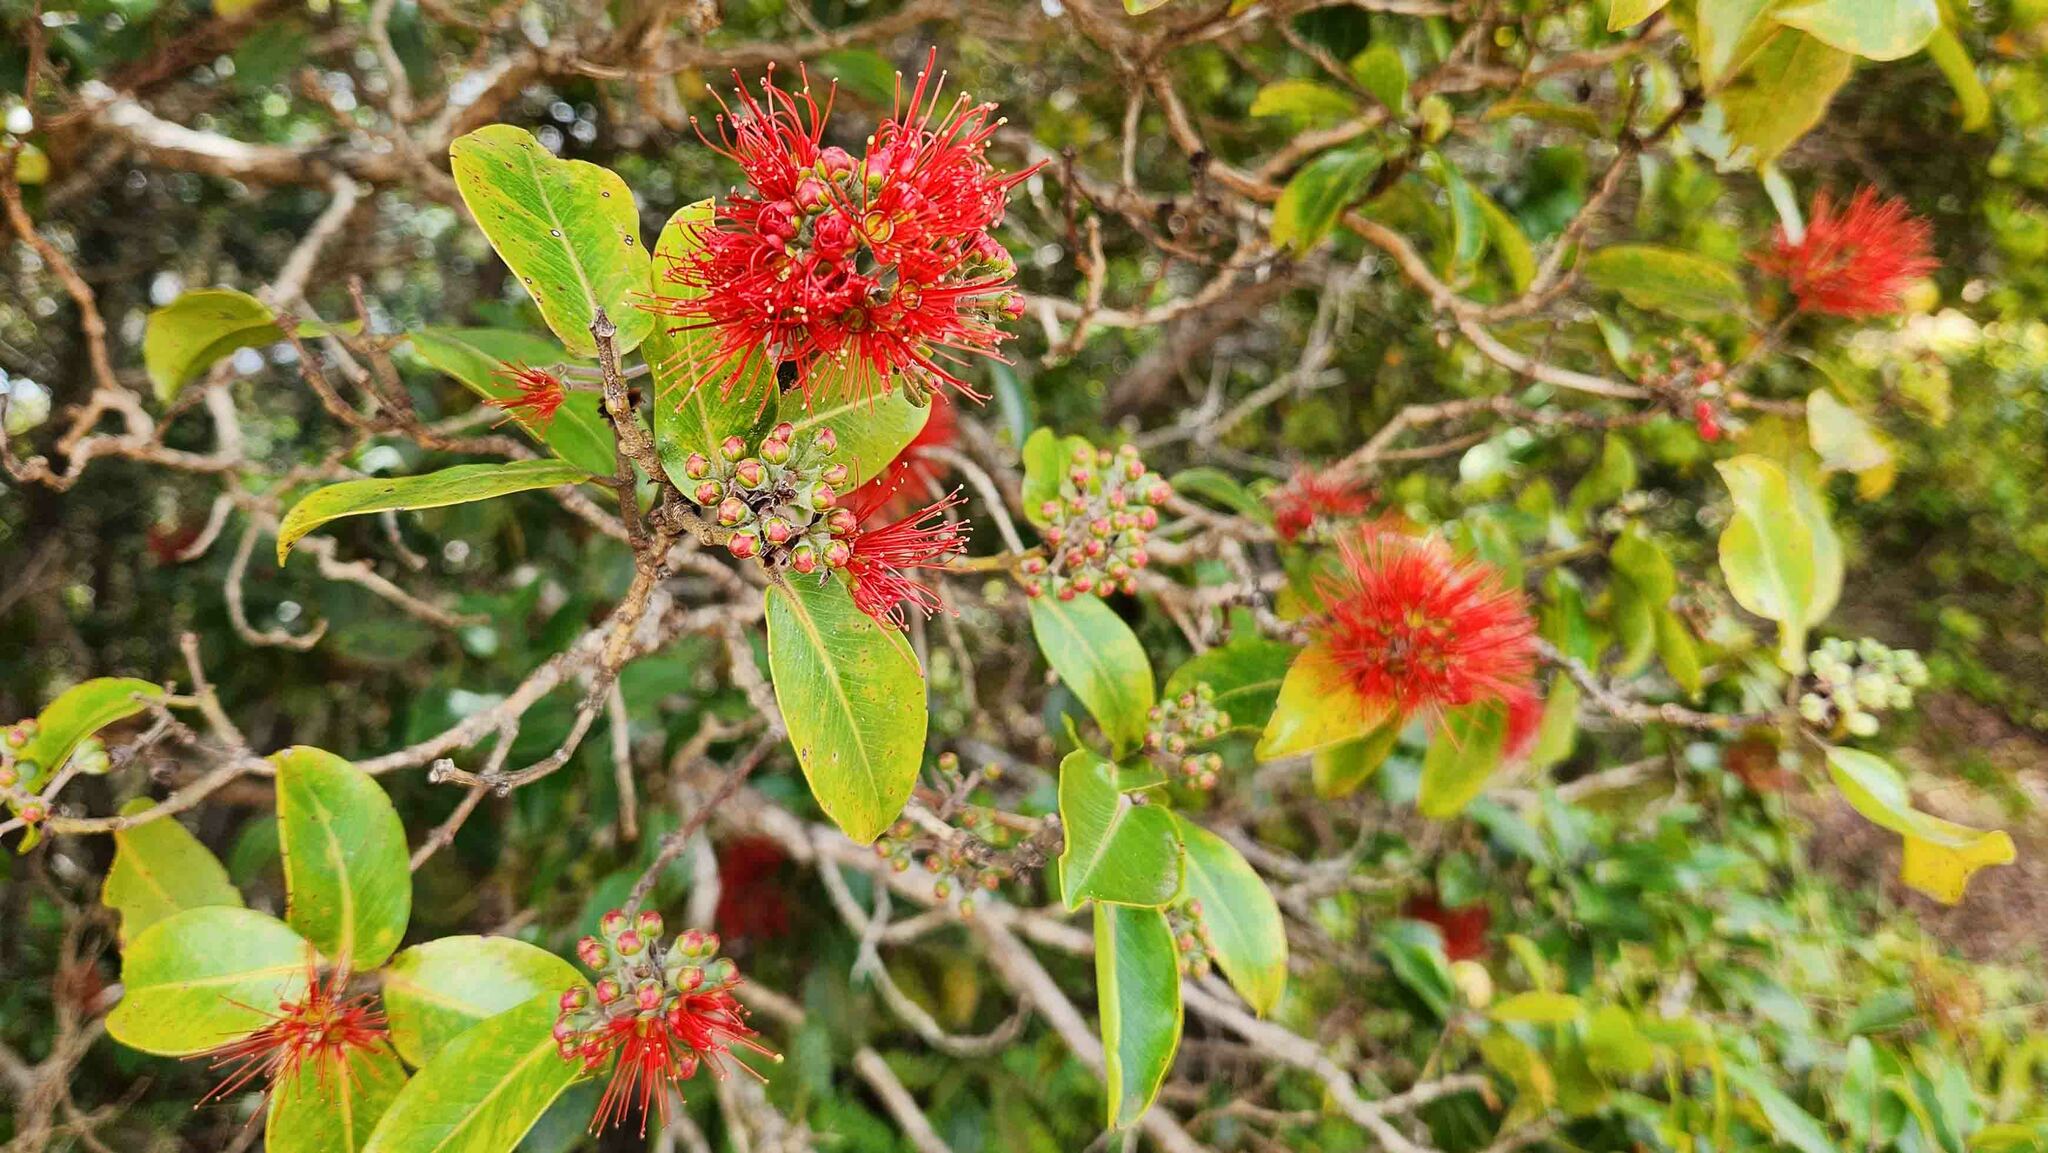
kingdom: Plantae
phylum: Tracheophyta
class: Magnoliopsida
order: Myrtales
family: Myrtaceae
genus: Metrosideros
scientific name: Metrosideros polymorpha
